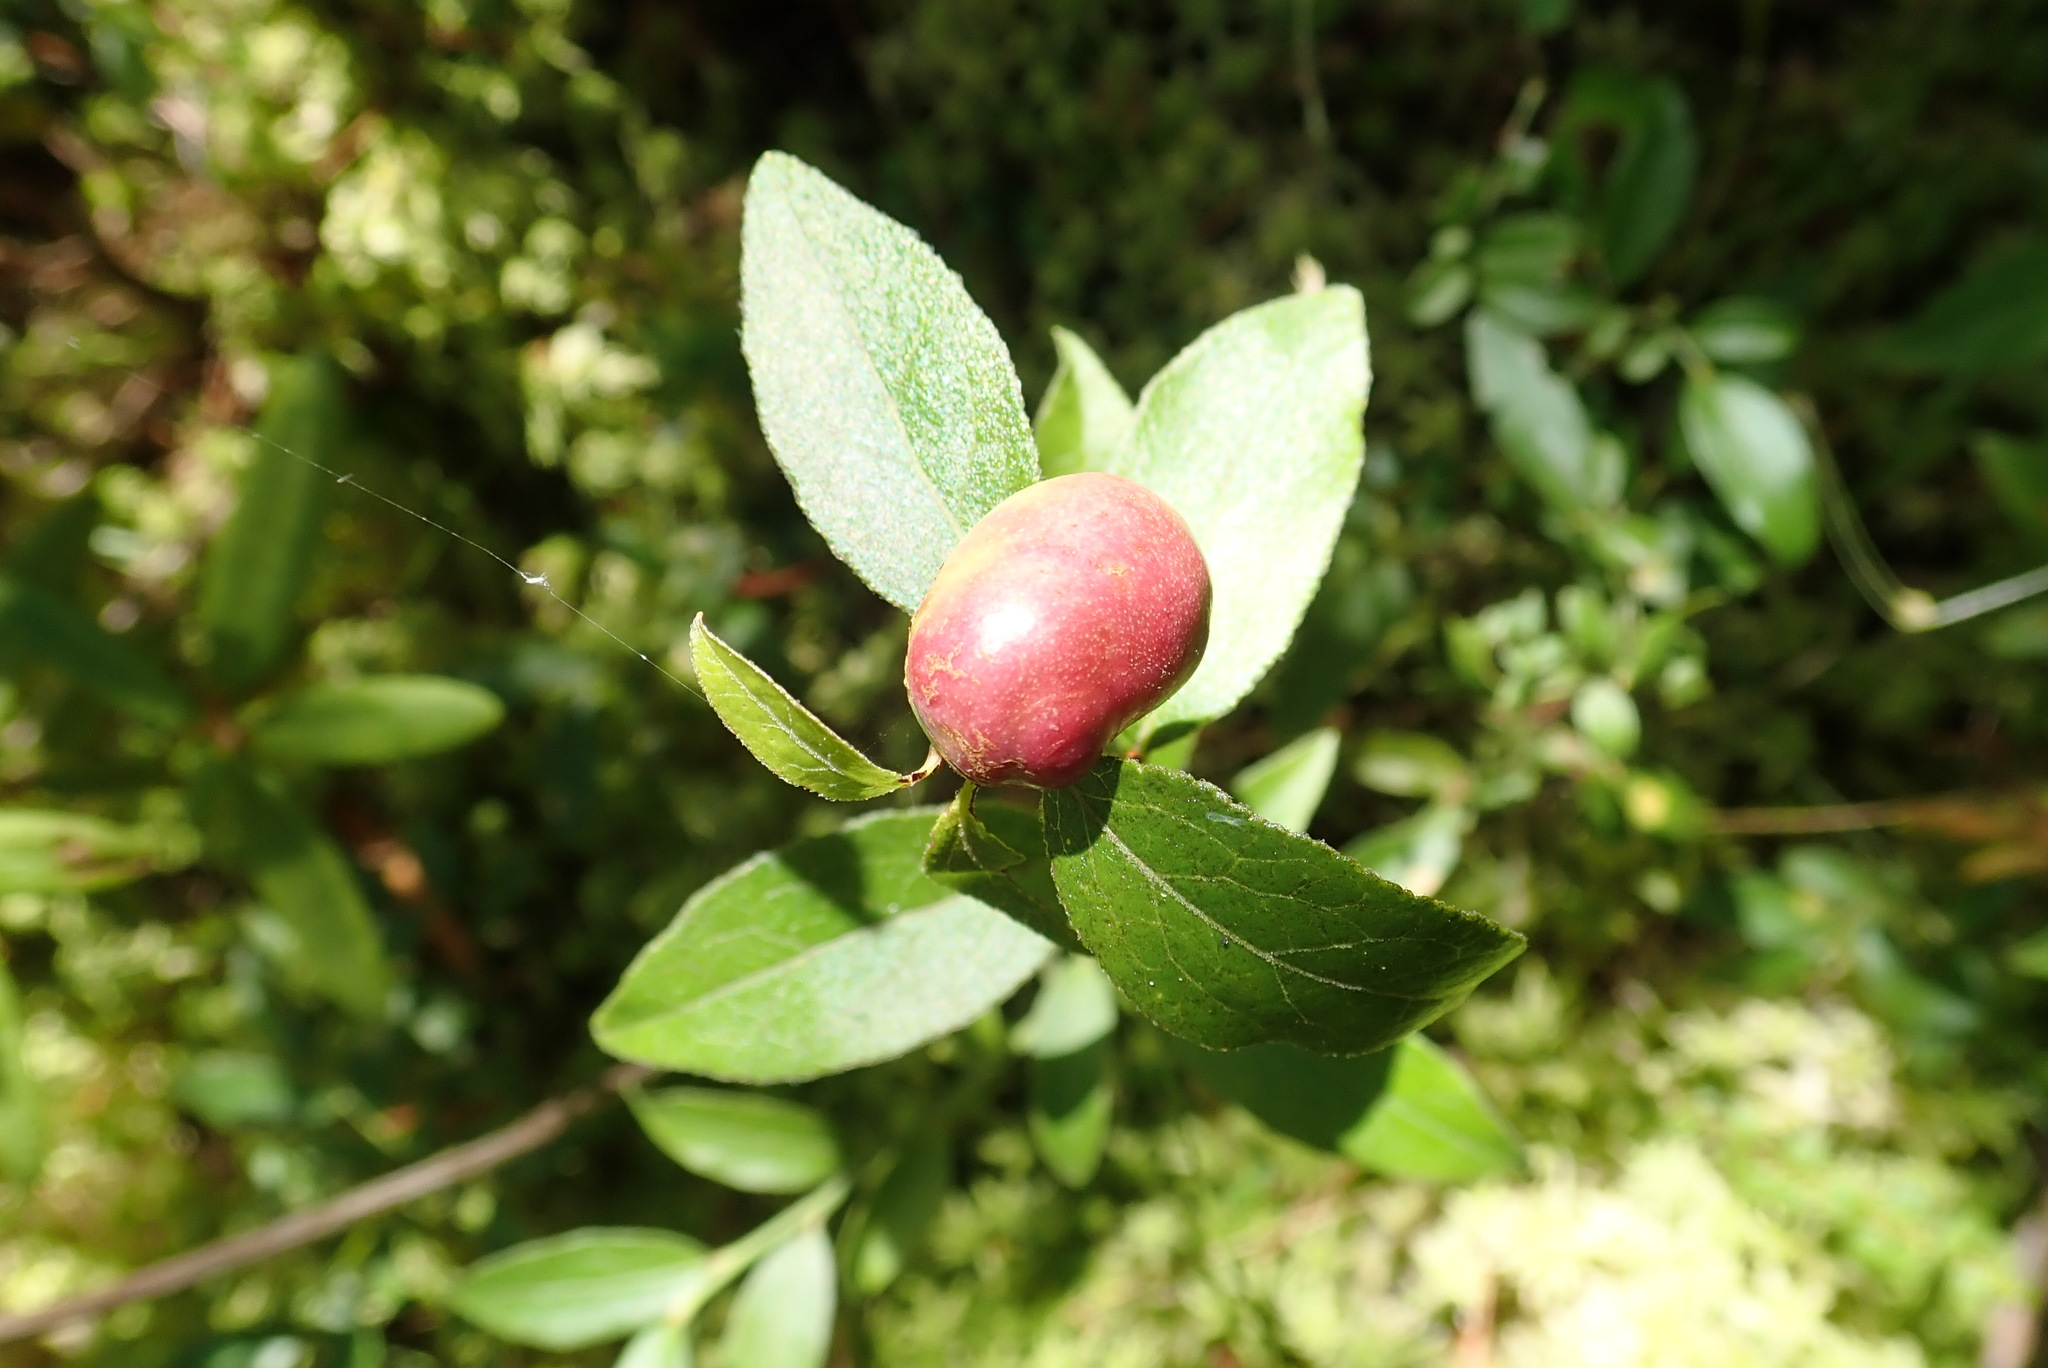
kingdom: Animalia
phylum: Arthropoda
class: Insecta
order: Hymenoptera
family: Pteromalidae
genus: Hemadas
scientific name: Hemadas nubilipennis
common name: Blueberry stem gall wasp
